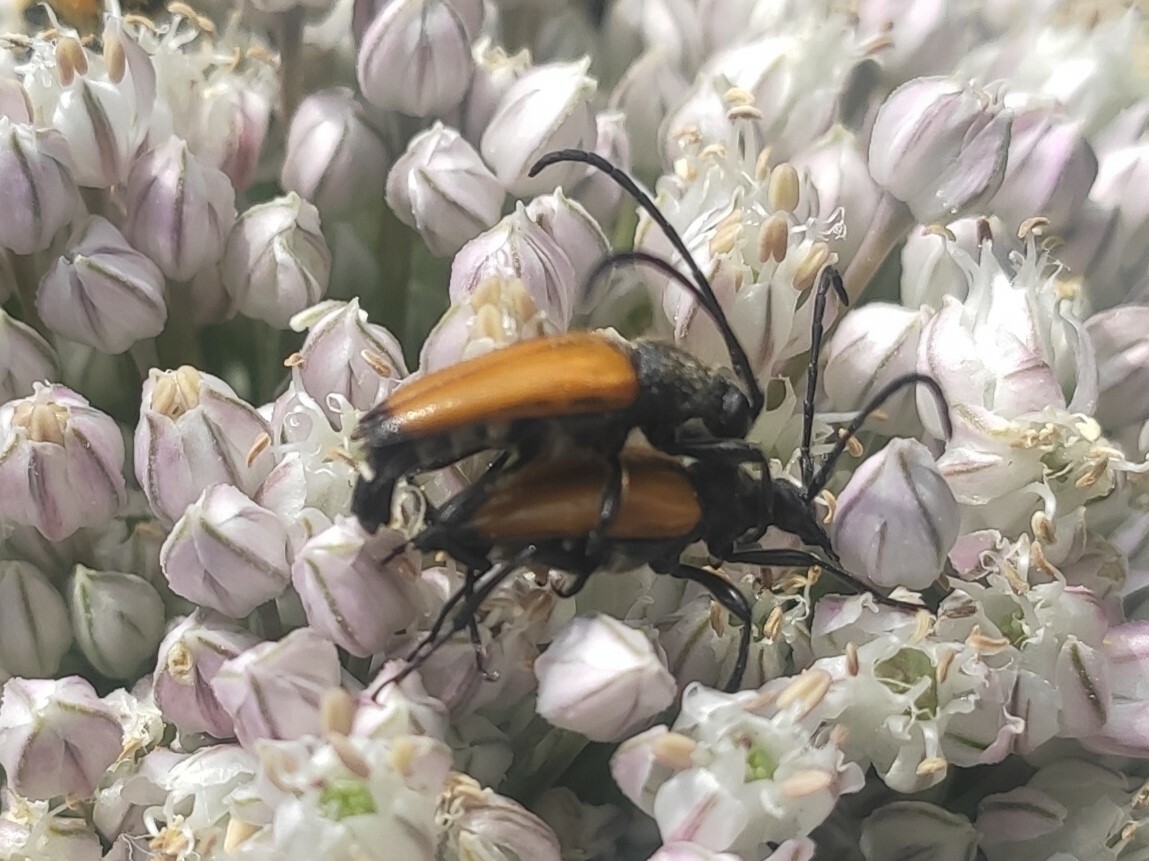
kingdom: Animalia
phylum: Arthropoda
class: Insecta
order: Coleoptera
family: Cerambycidae
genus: Paracorymbia
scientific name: Paracorymbia fulva
